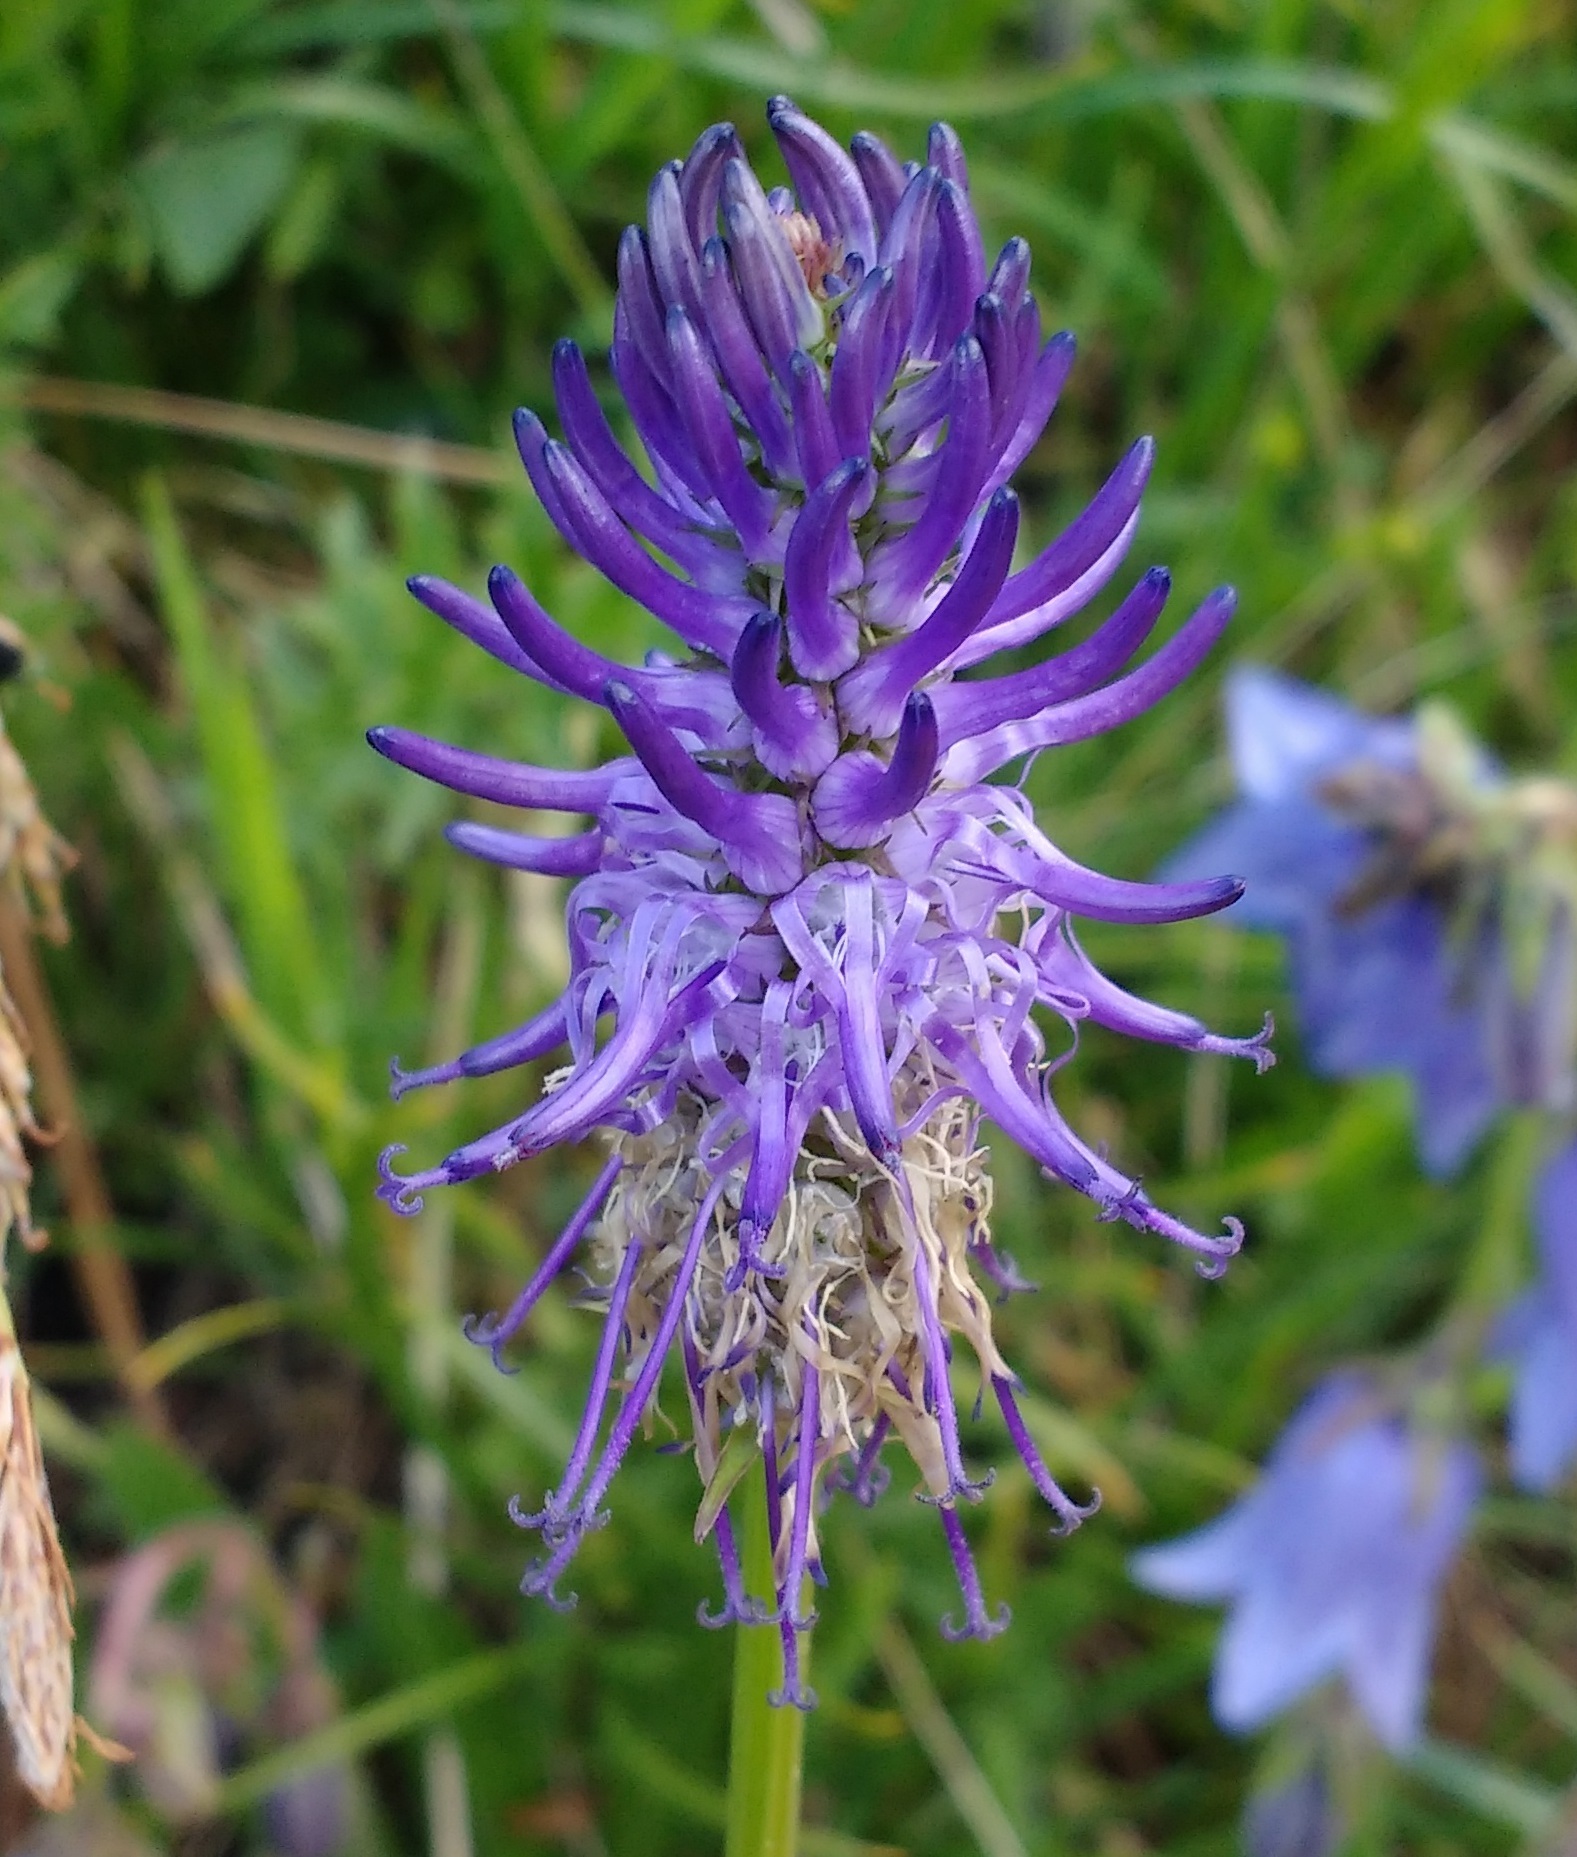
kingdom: Plantae
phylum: Tracheophyta
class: Magnoliopsida
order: Asterales
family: Campanulaceae
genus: Phyteuma
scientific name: Phyteuma betonicifolium
